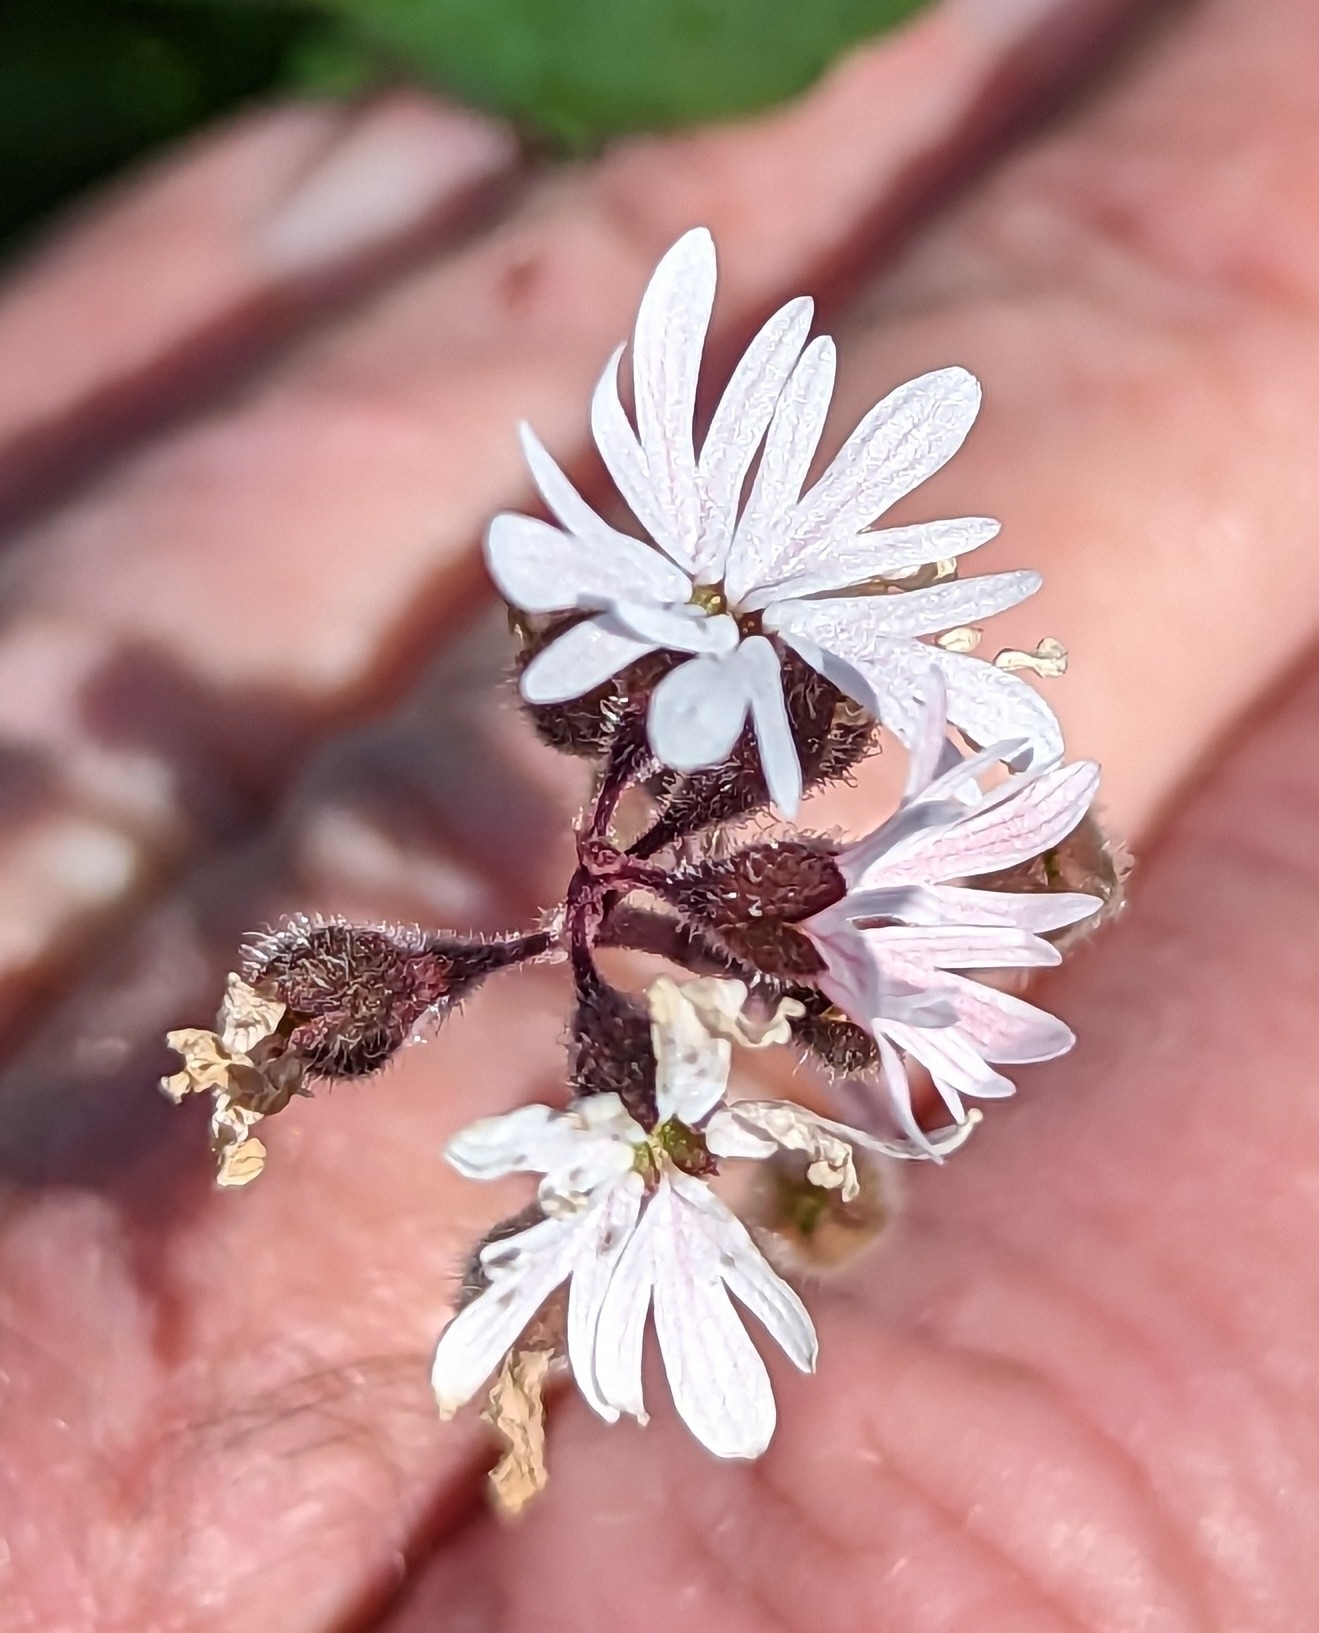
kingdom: Plantae
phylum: Tracheophyta
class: Magnoliopsida
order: Saxifragales
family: Saxifragaceae
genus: Lithophragma
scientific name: Lithophragma parviflorum
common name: Small-flowered fringe-cup
